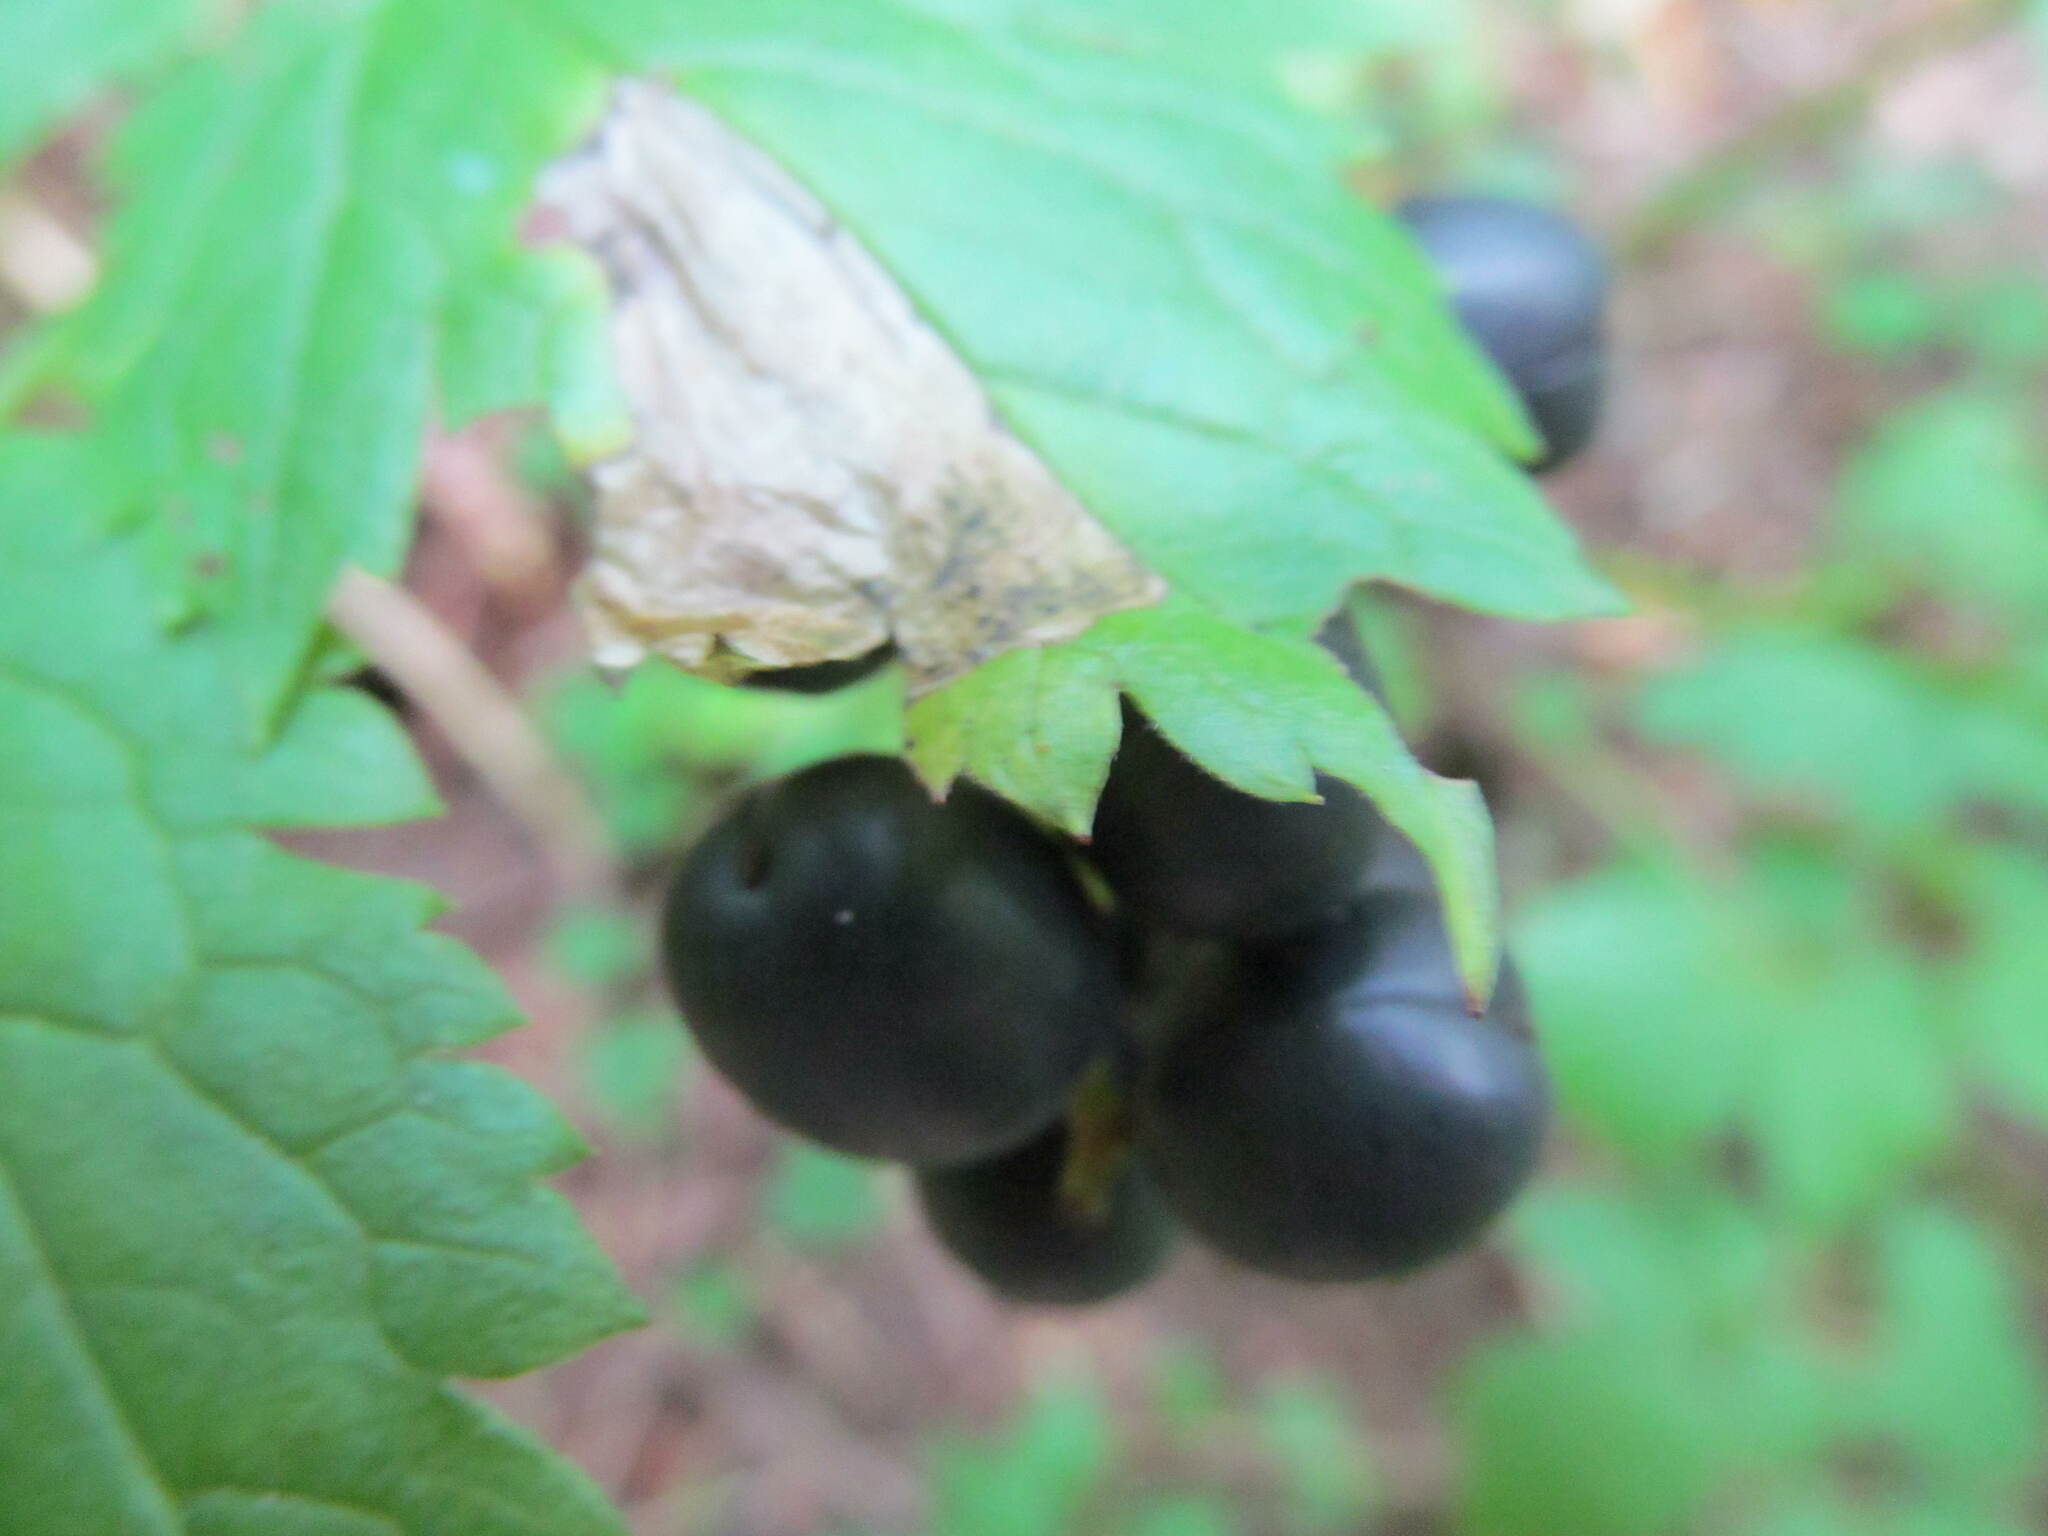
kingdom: Plantae
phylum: Tracheophyta
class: Magnoliopsida
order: Ranunculales
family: Ranunculaceae
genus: Actaea
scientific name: Actaea spicata
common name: Baneberry
